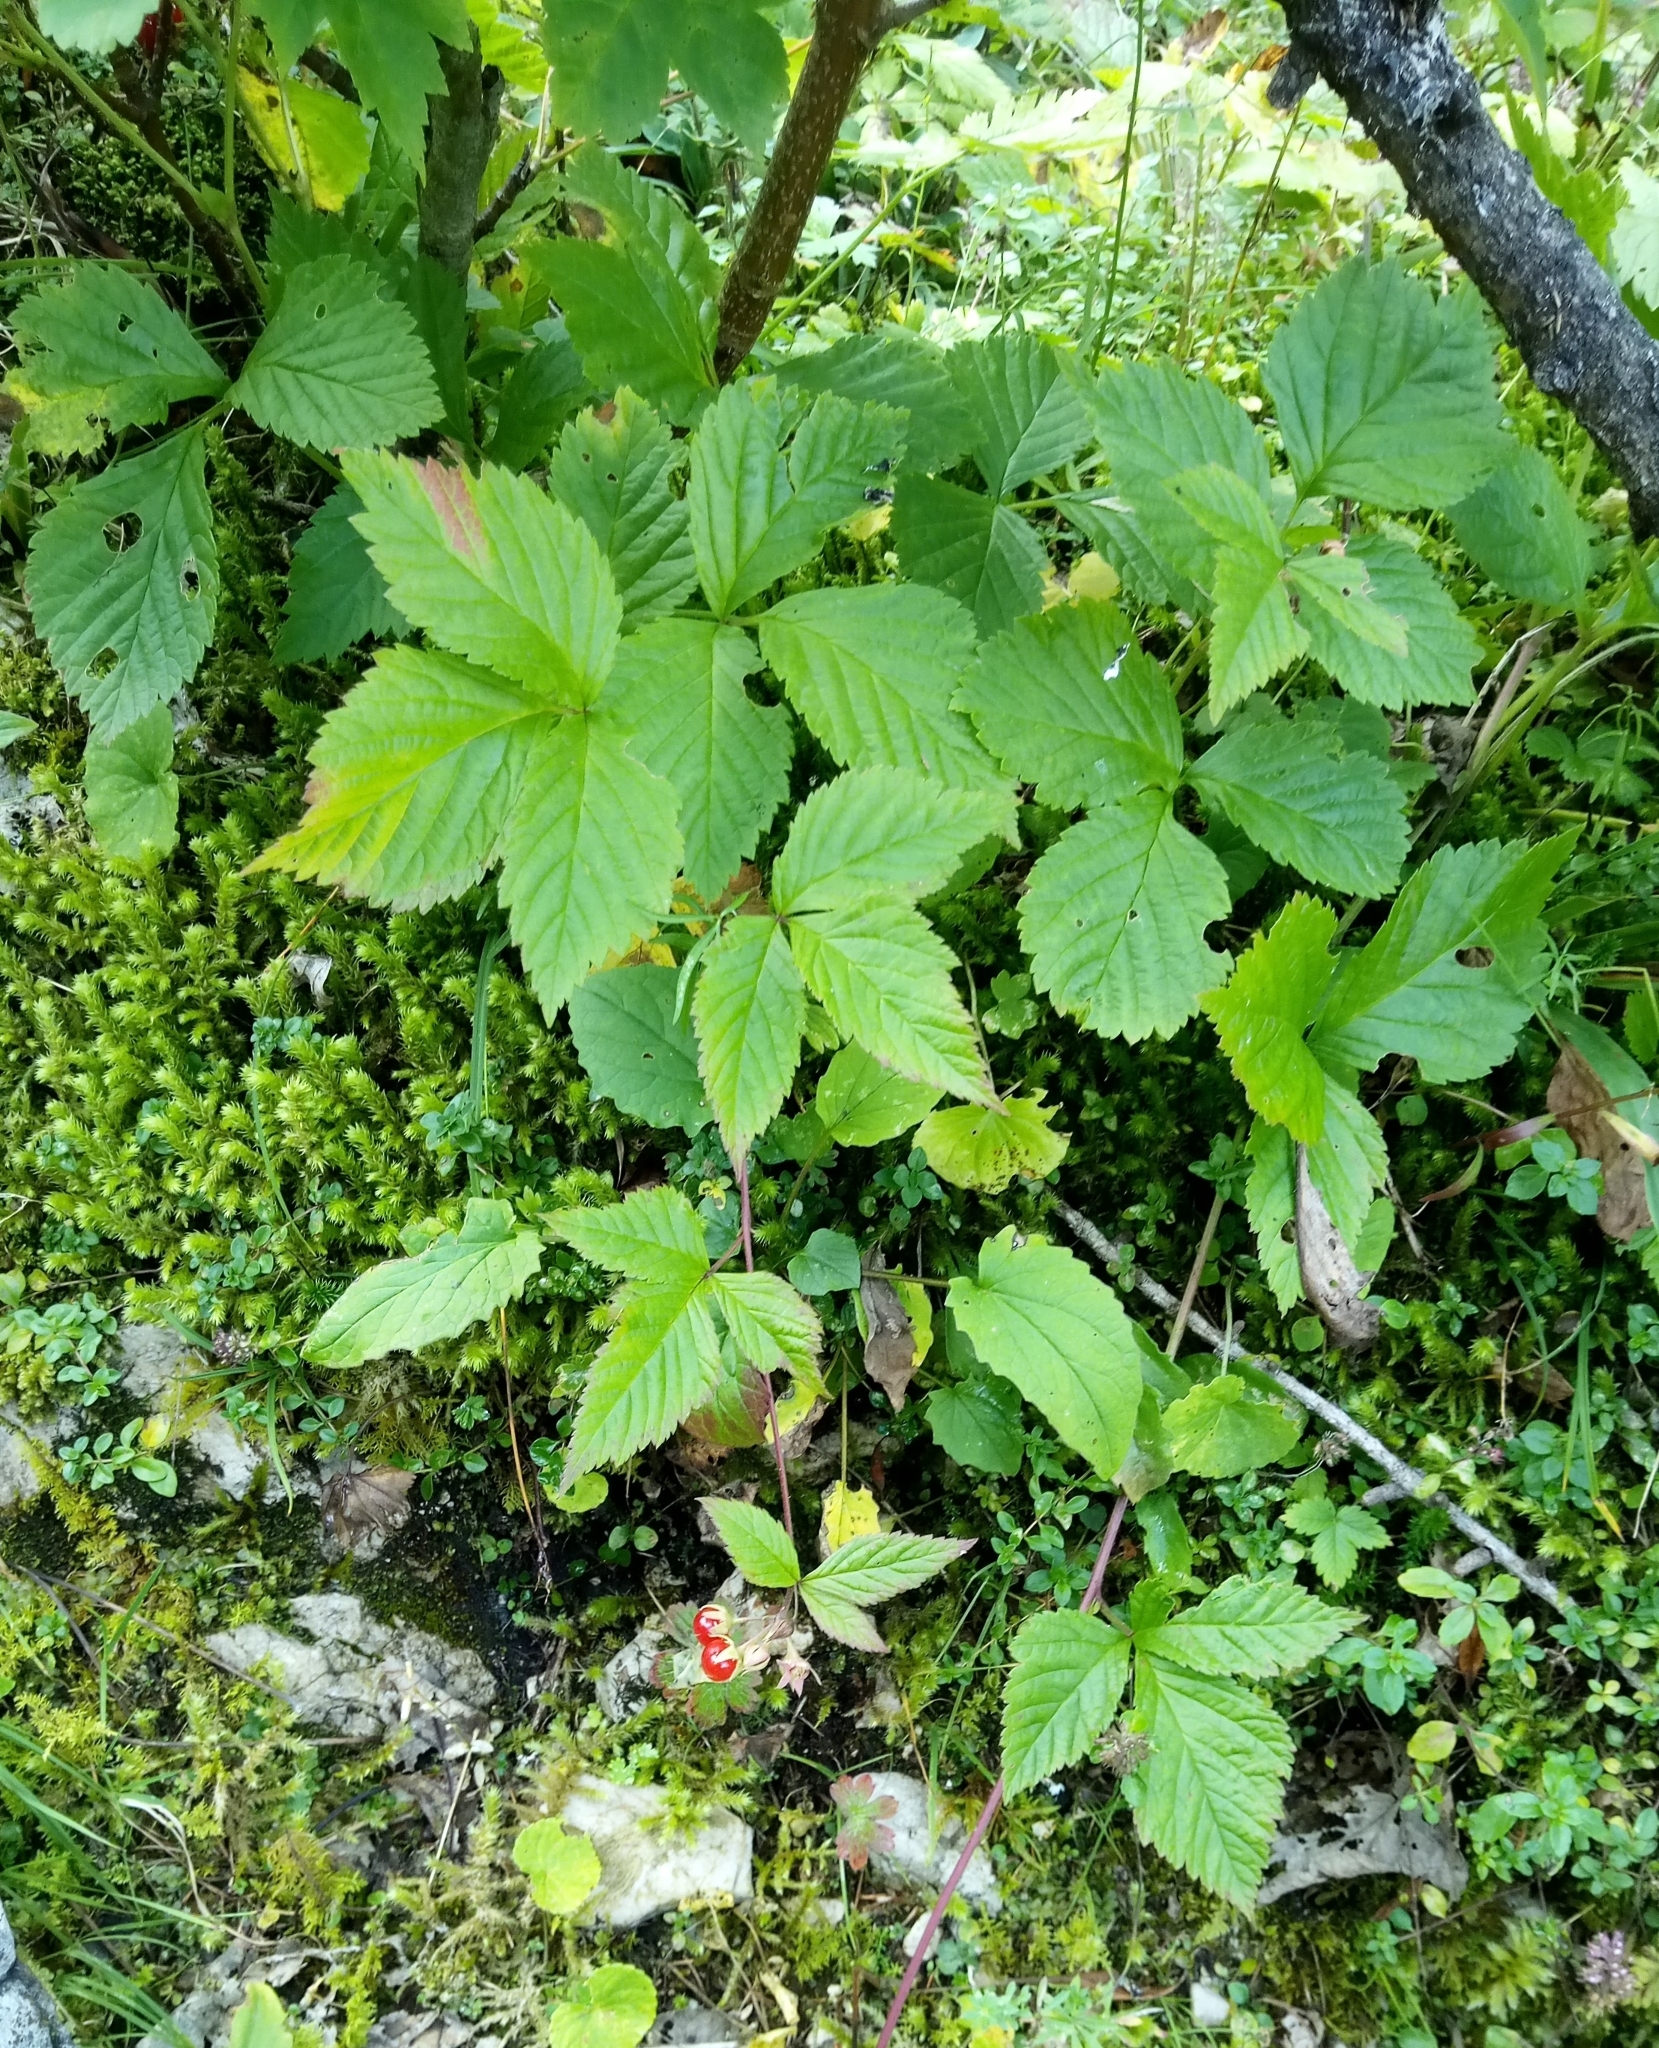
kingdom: Plantae
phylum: Tracheophyta
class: Magnoliopsida
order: Rosales
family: Rosaceae
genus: Rubus
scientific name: Rubus saxatilis
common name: Stone bramble
